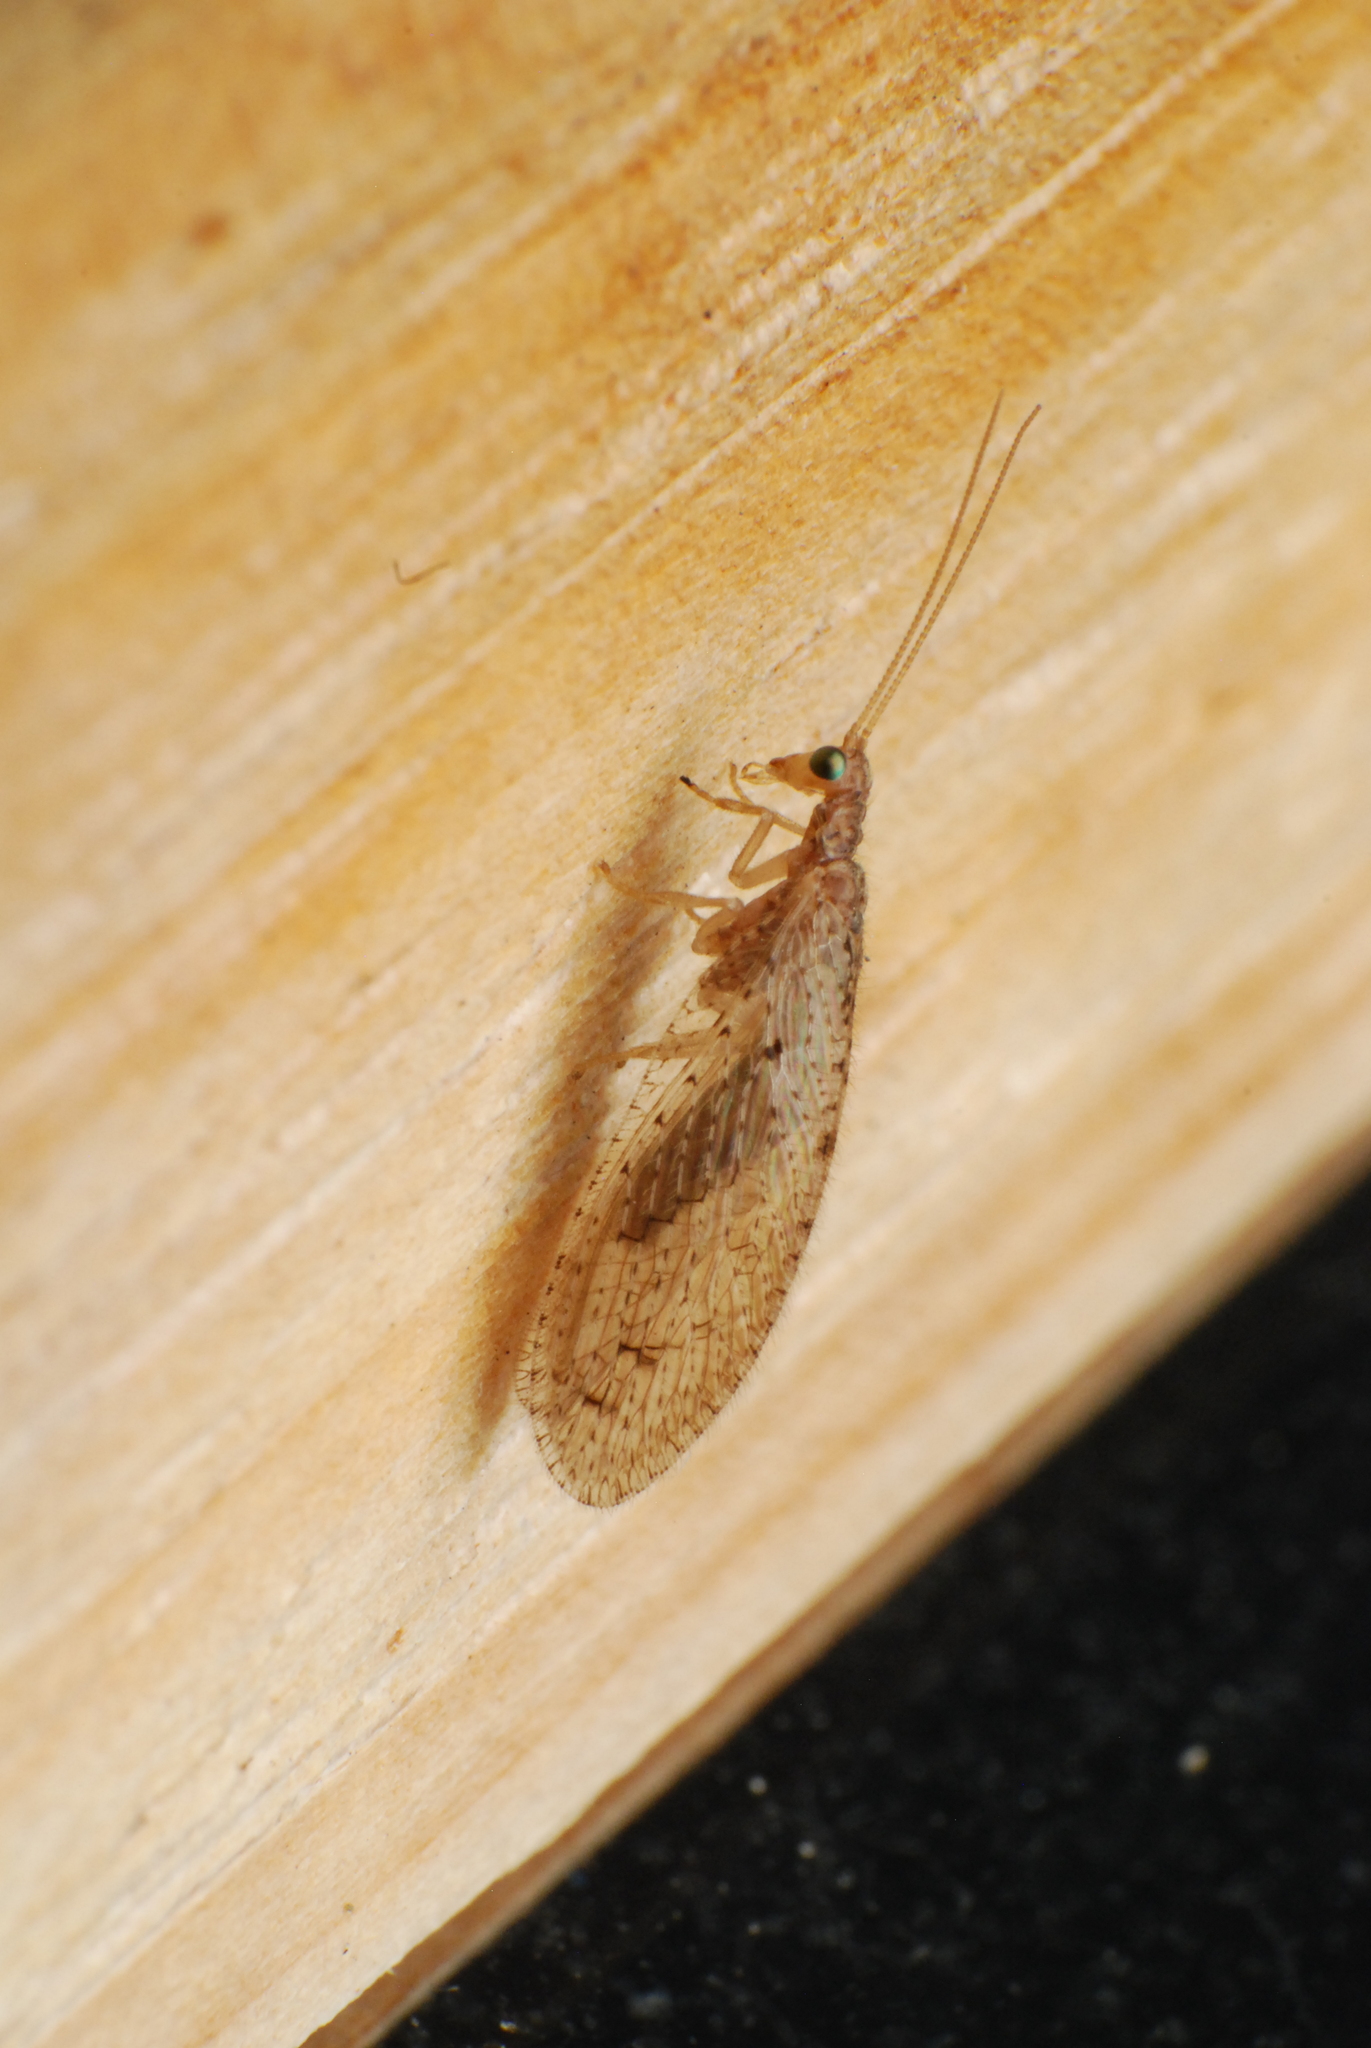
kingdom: Animalia
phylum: Arthropoda
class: Insecta
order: Neuroptera
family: Hemerobiidae
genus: Micromus
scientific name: Micromus tasmaniae
